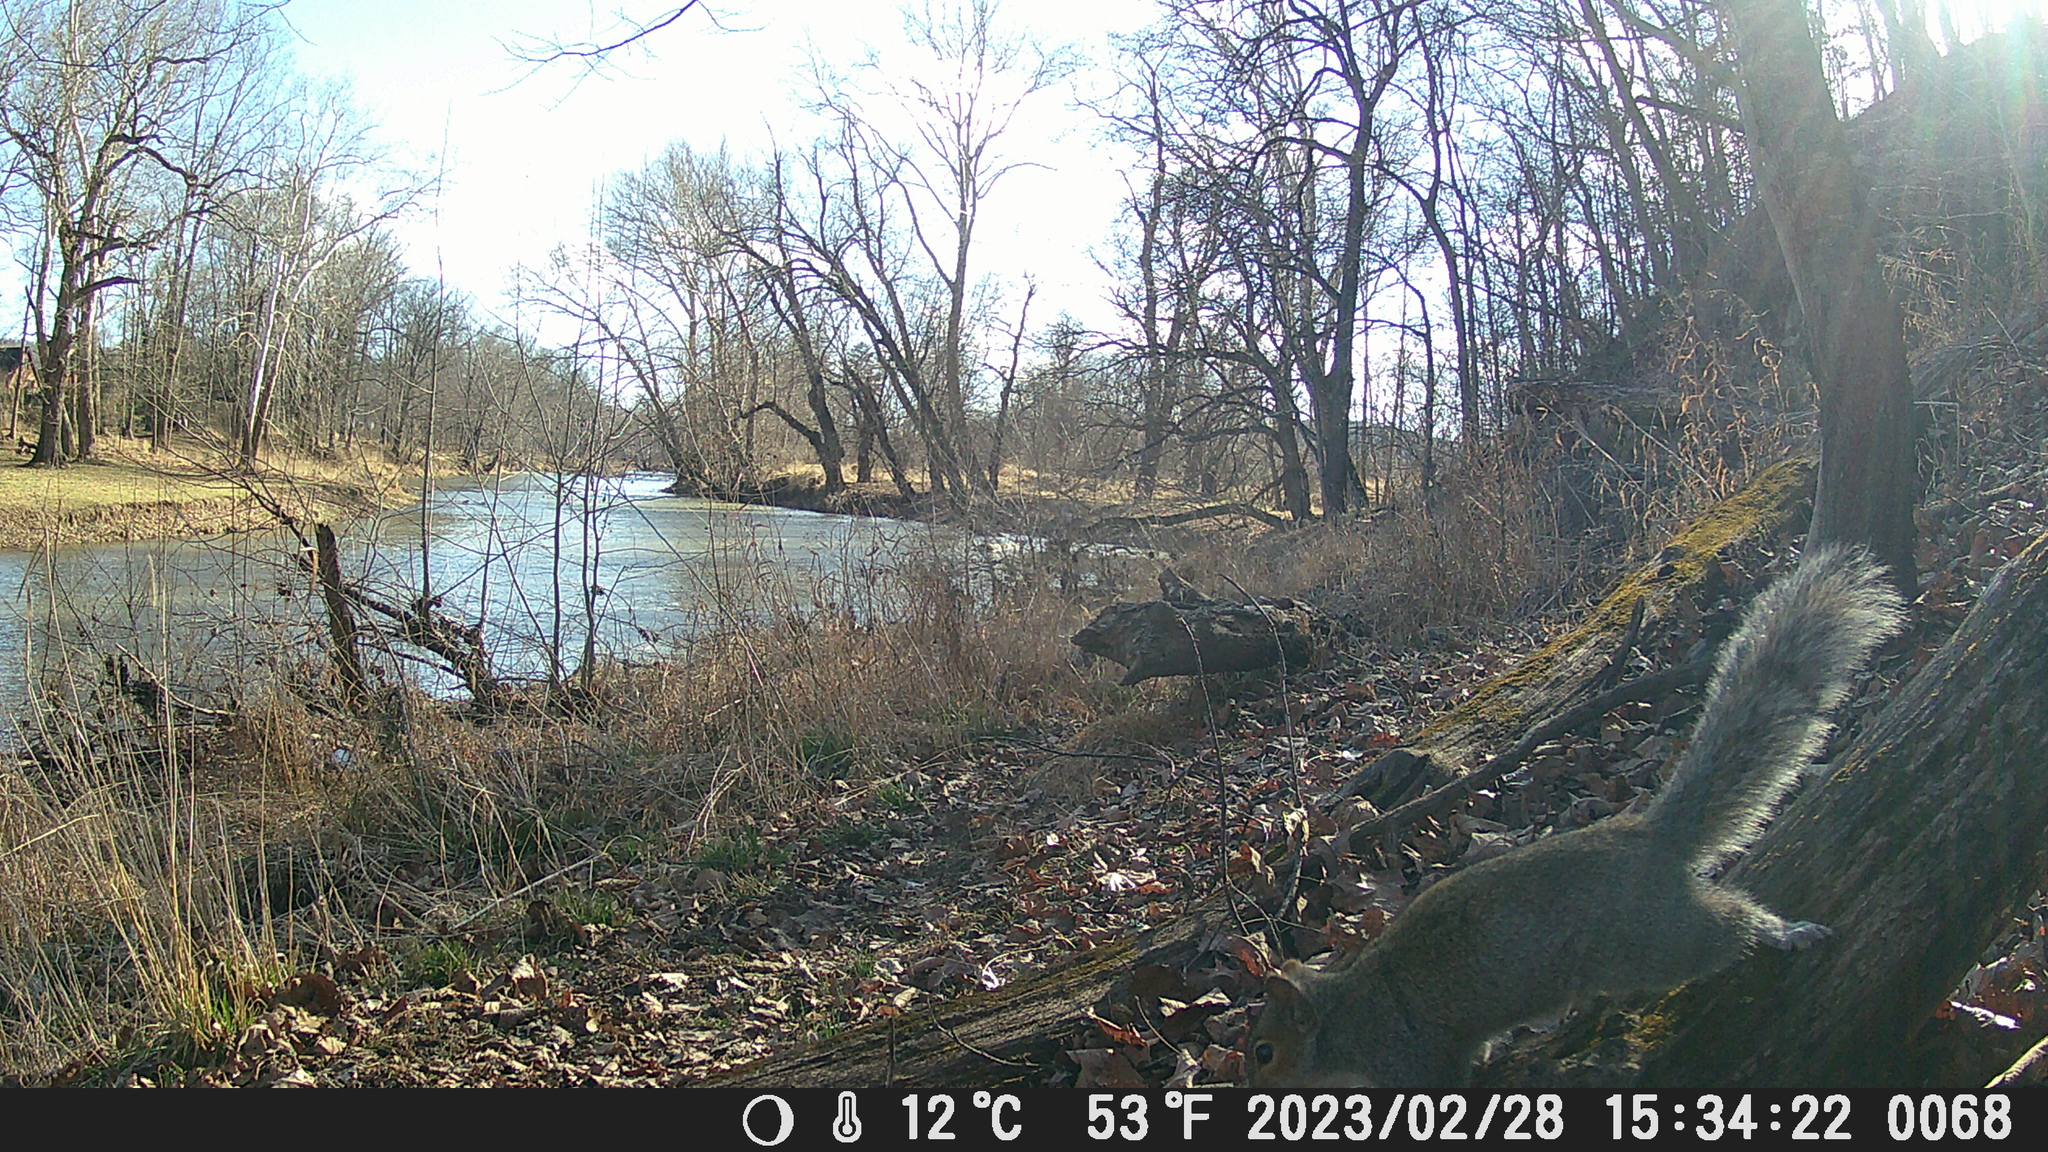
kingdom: Animalia
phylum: Chordata
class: Mammalia
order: Rodentia
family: Sciuridae
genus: Sciurus
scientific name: Sciurus carolinensis
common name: Eastern gray squirrel
